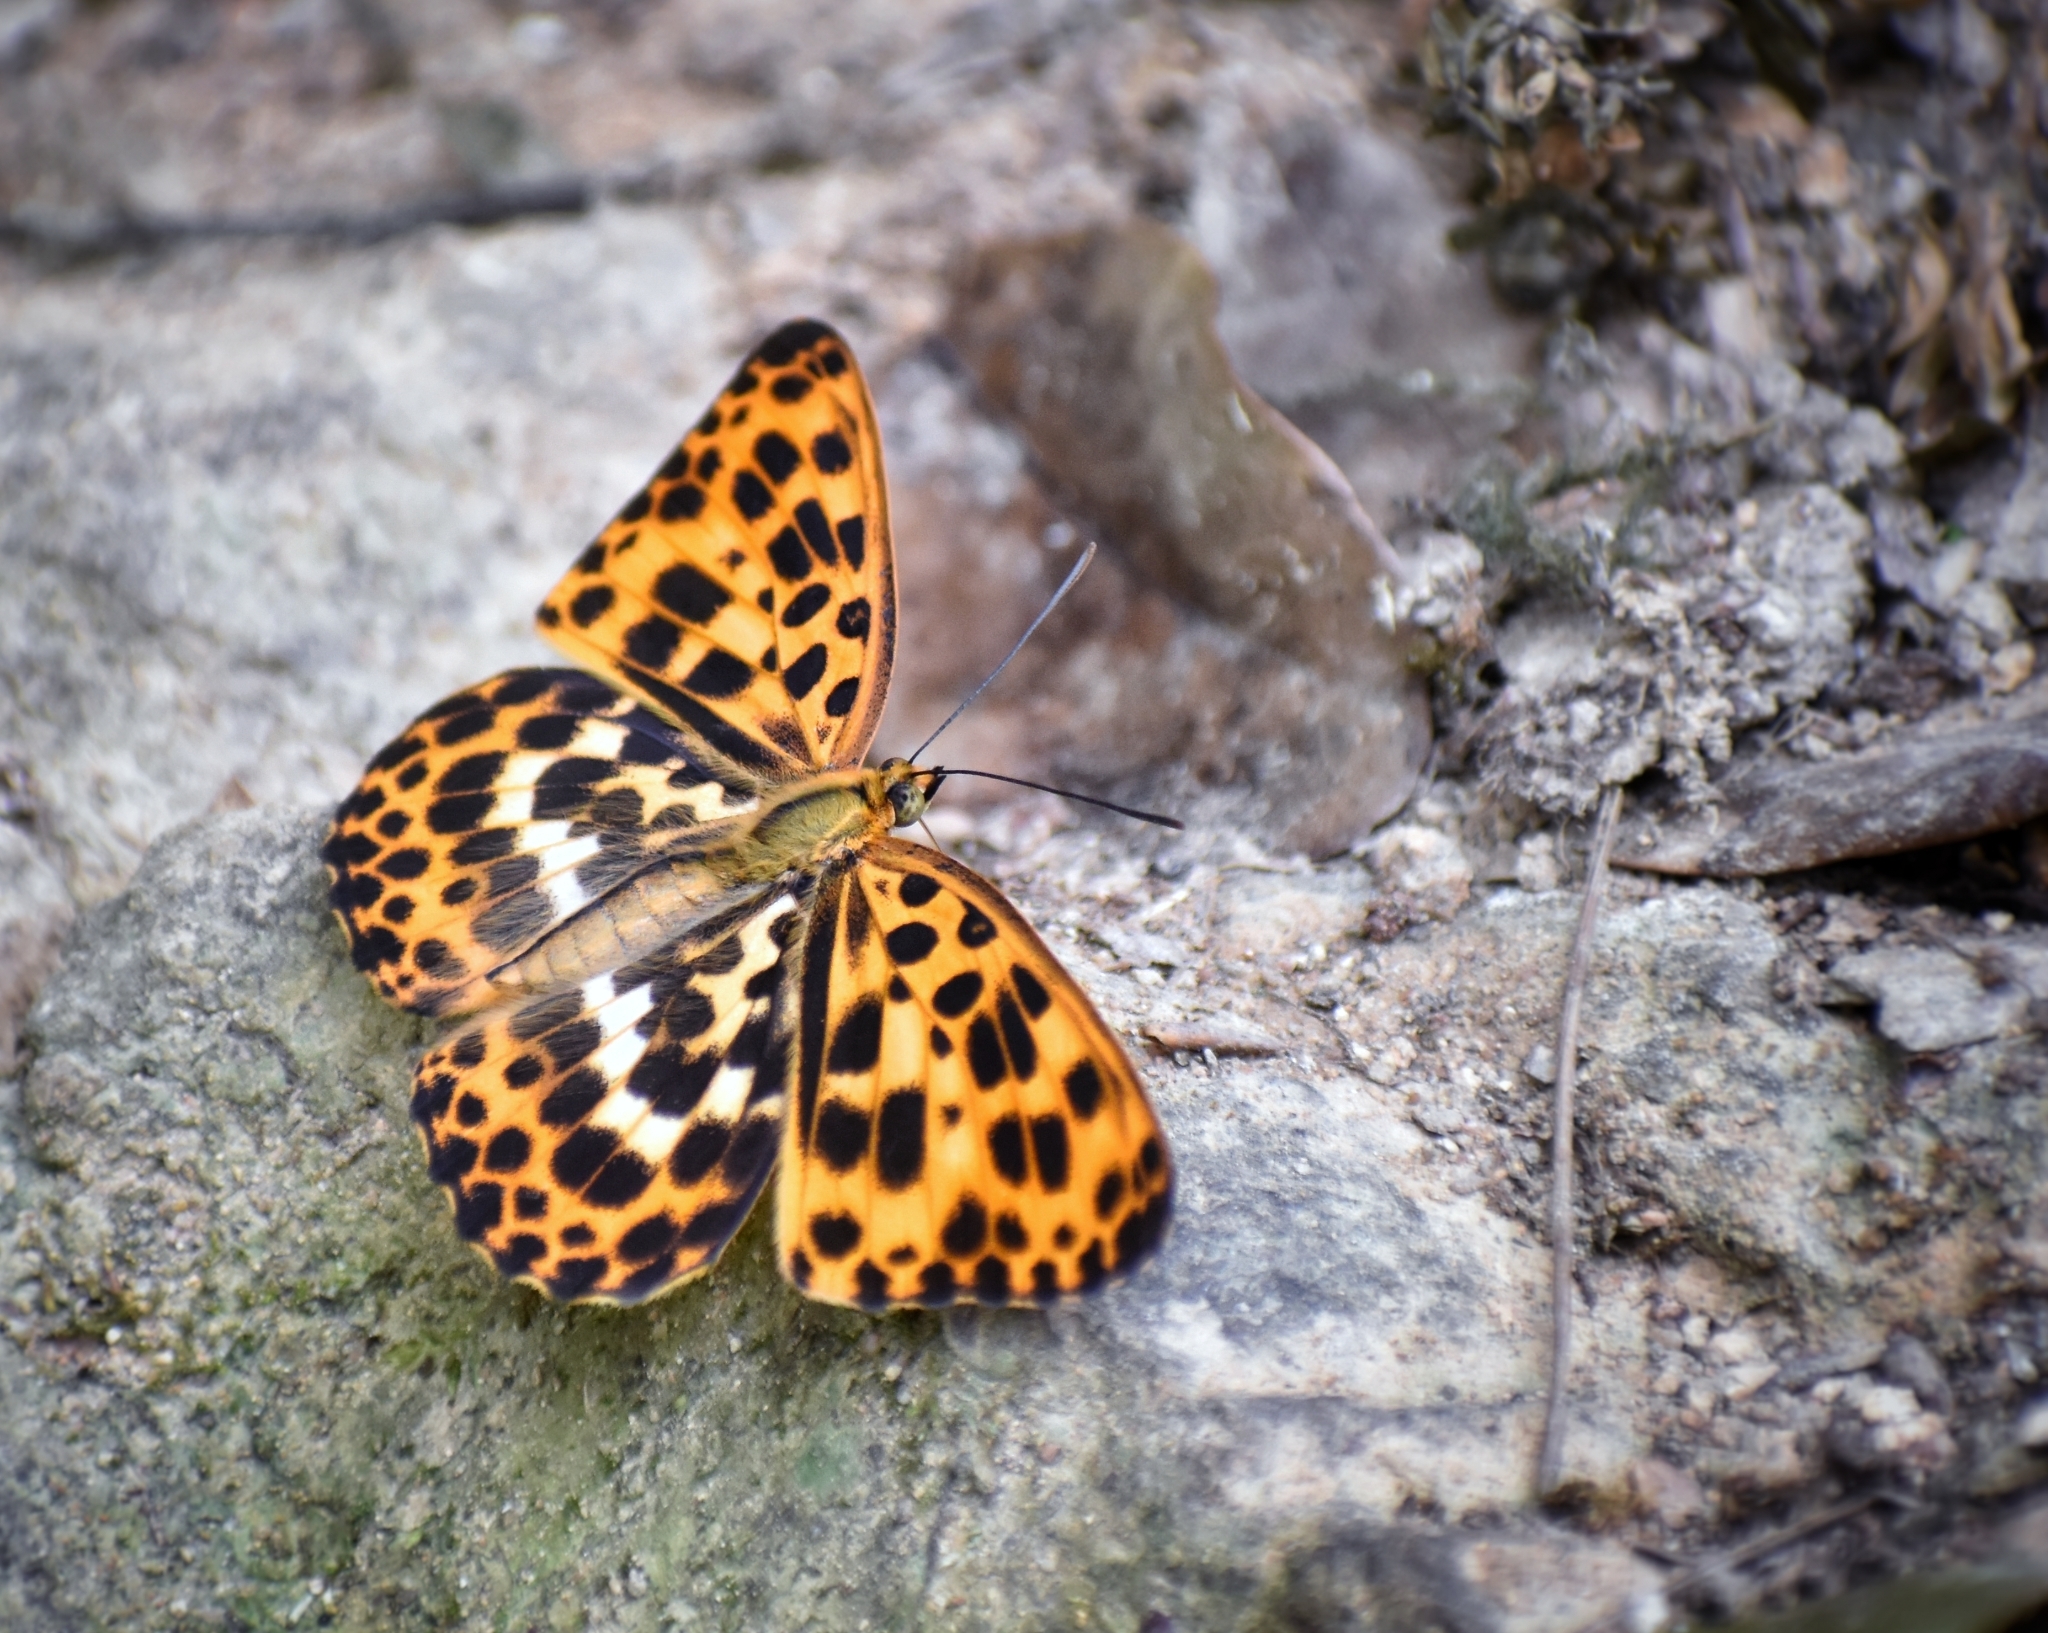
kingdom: Animalia
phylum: Arthropoda
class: Insecta
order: Lepidoptera
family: Nymphalidae
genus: Timelaea
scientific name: Timelaea albescens
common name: Beautiful leopard
